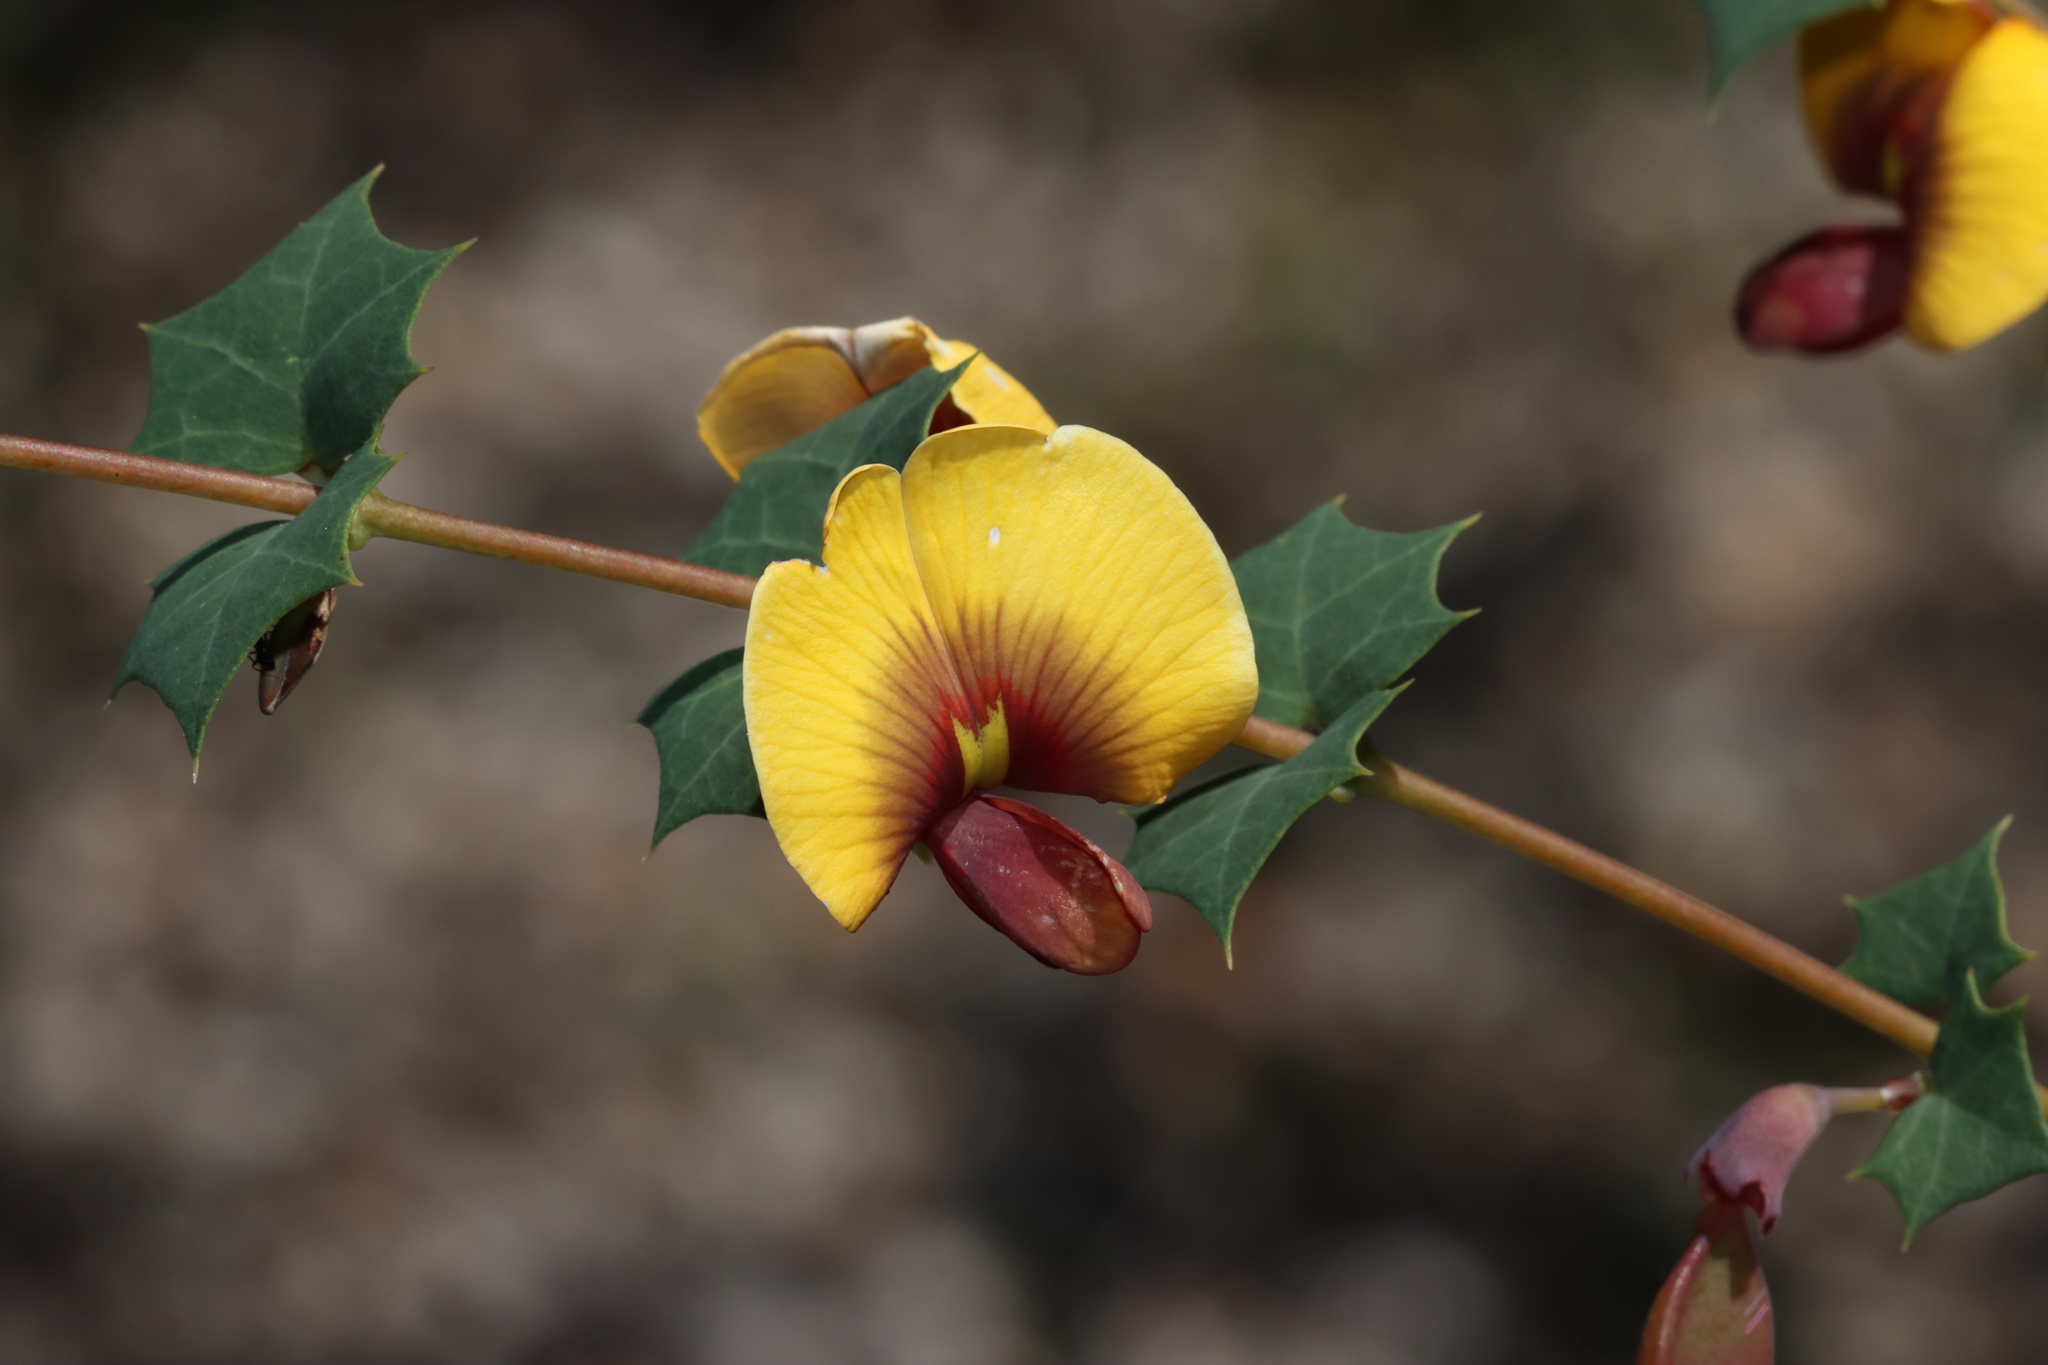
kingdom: Plantae
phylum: Tracheophyta
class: Magnoliopsida
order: Fabales
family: Fabaceae
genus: Bossiaea
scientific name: Bossiaea aquifolium
